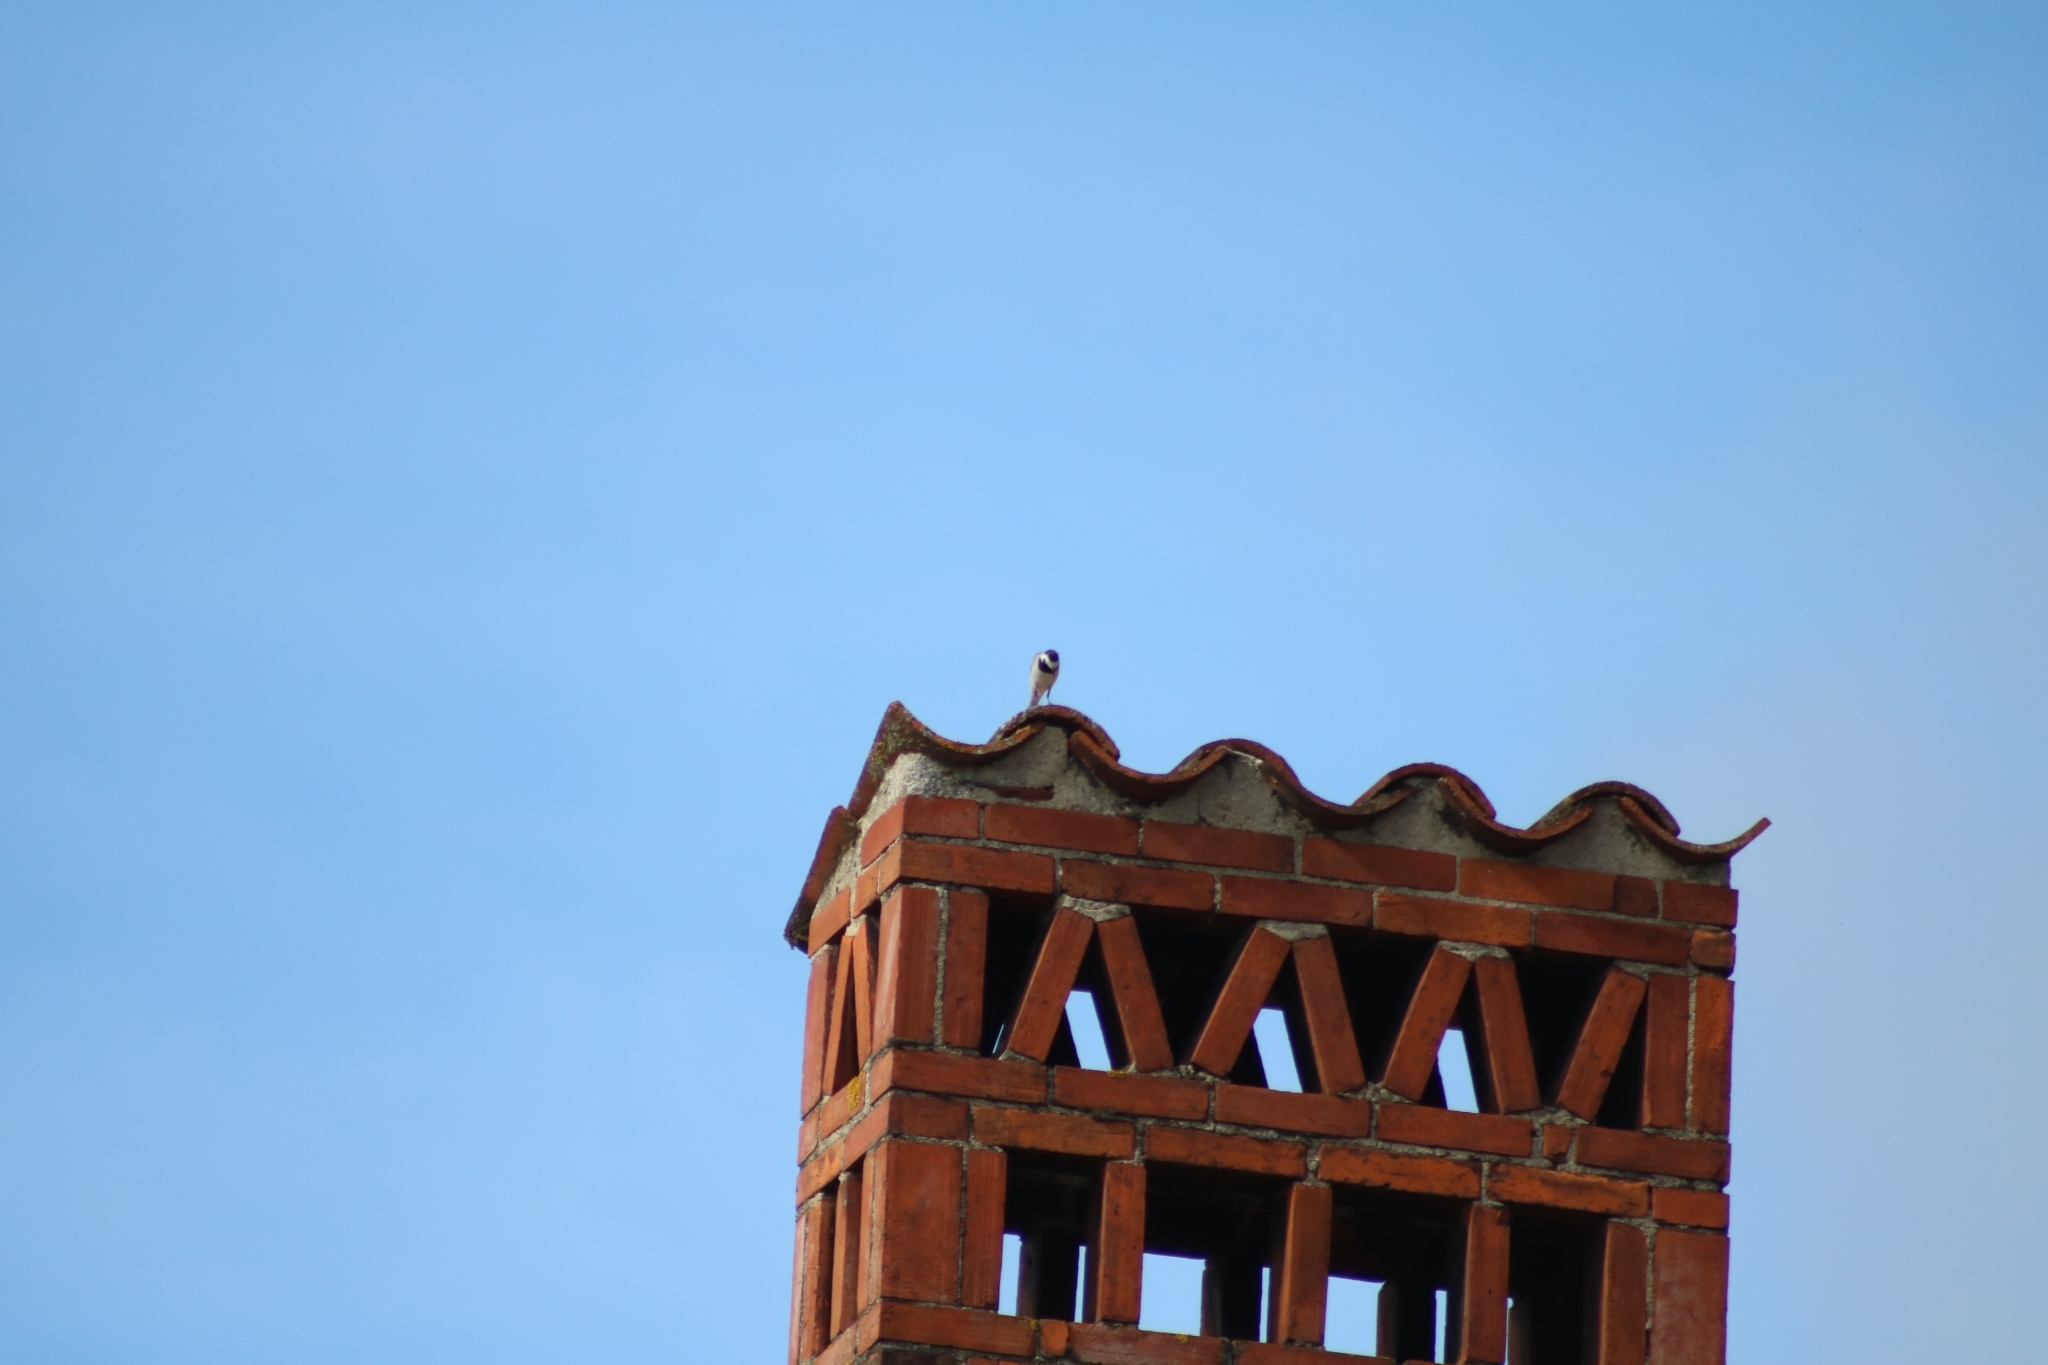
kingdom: Animalia
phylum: Chordata
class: Aves
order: Passeriformes
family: Motacillidae
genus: Motacilla
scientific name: Motacilla alba
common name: White wagtail
